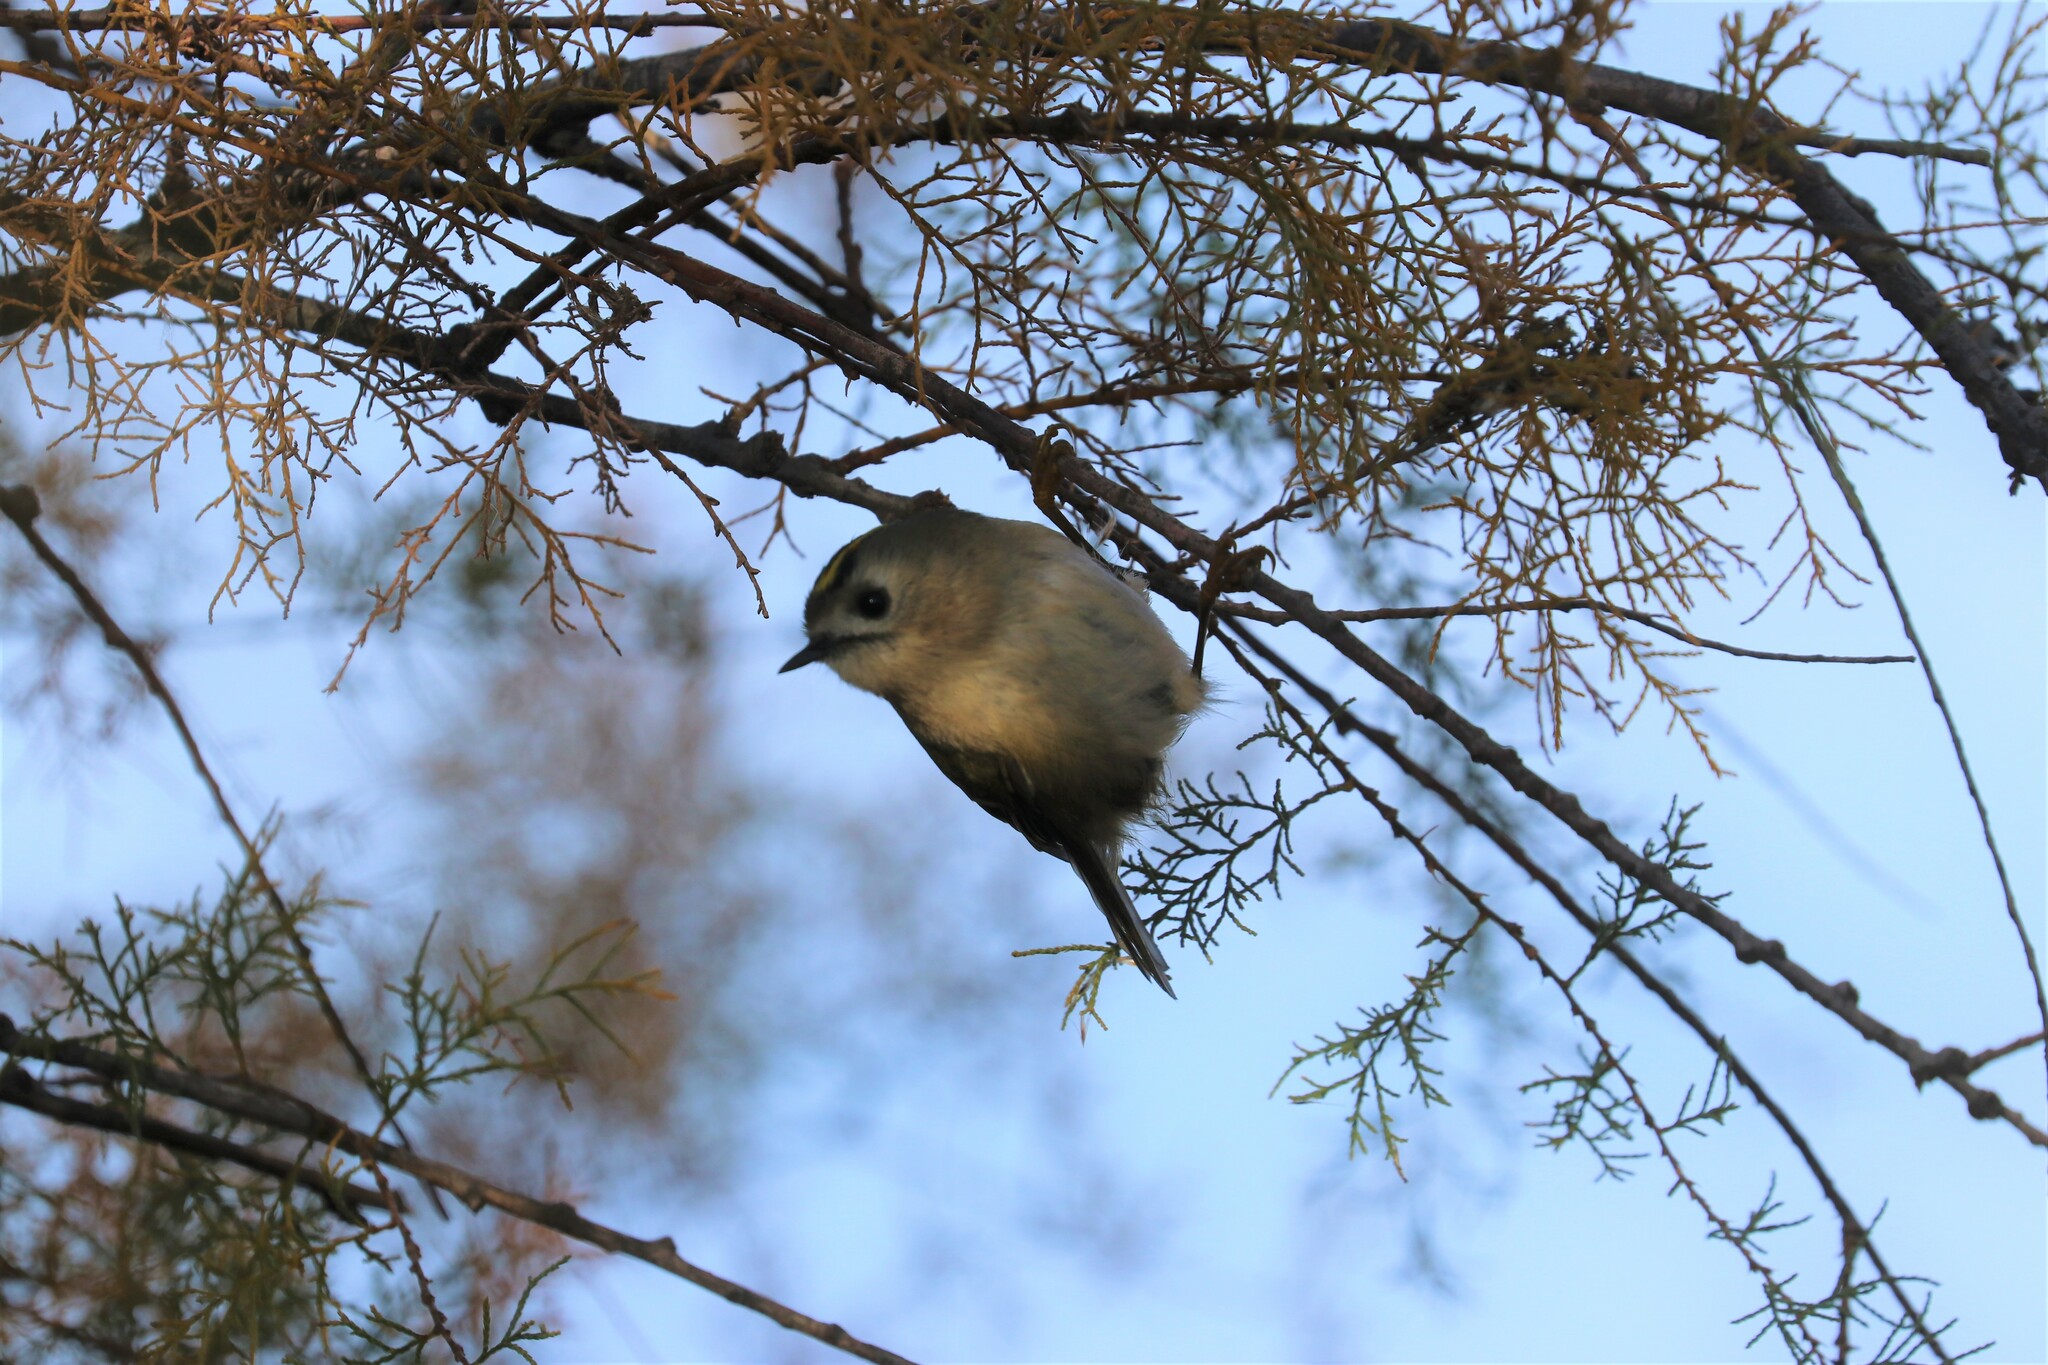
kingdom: Animalia
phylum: Chordata
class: Aves
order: Passeriformes
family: Regulidae
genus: Regulus
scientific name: Regulus regulus
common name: Goldcrest
